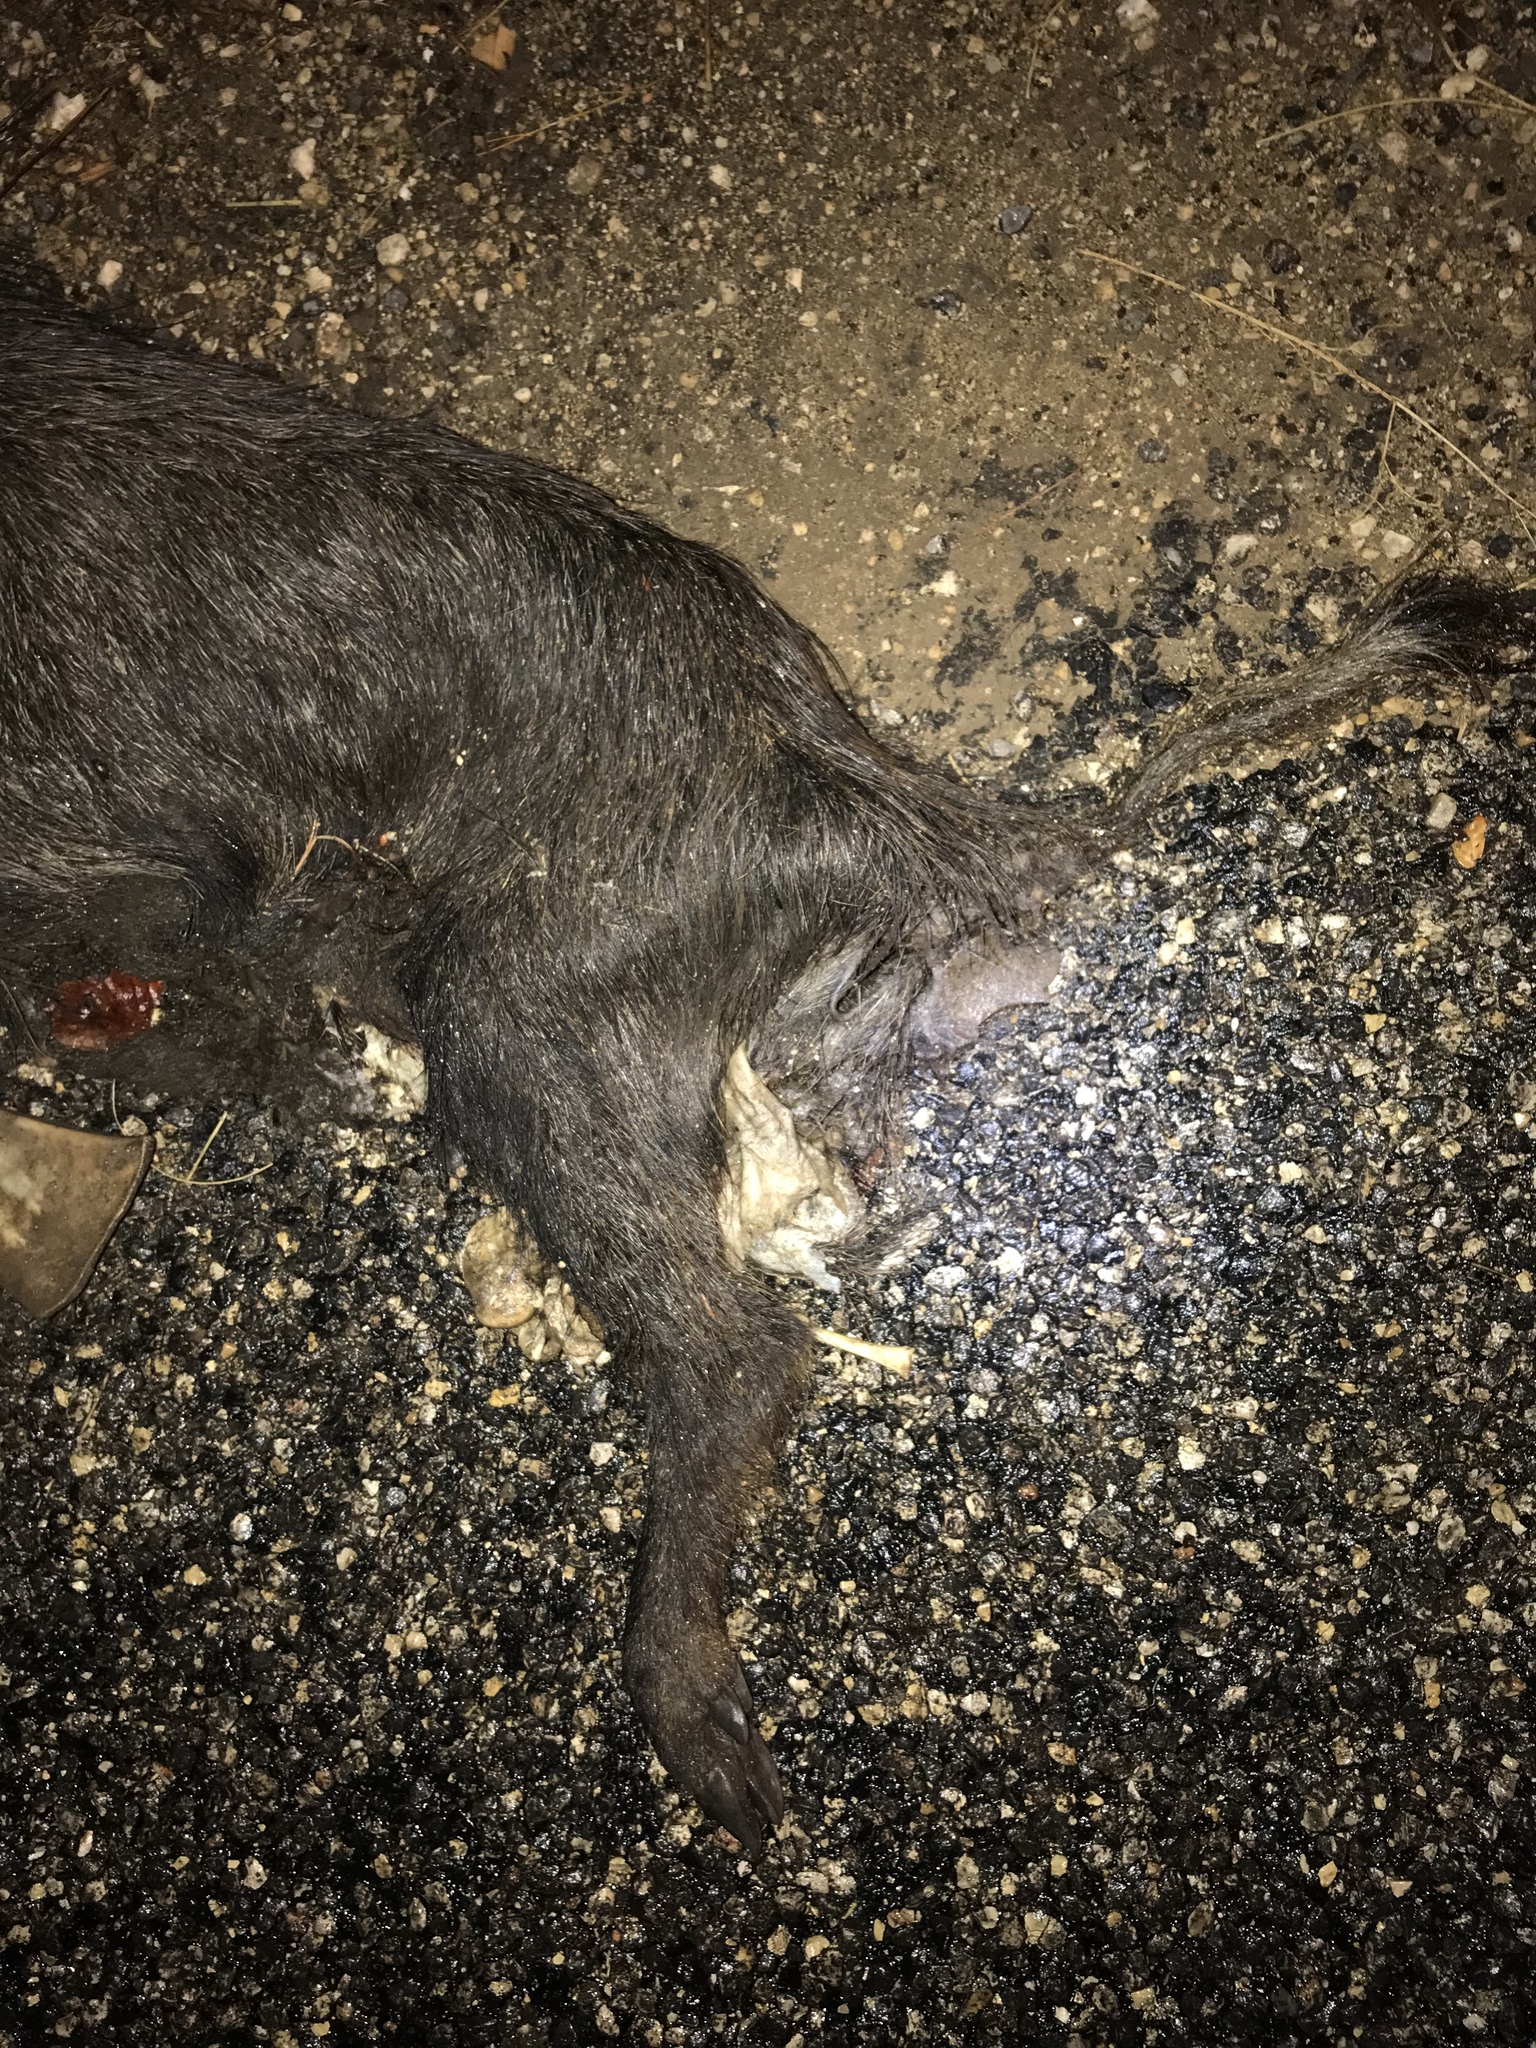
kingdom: Animalia
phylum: Chordata
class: Mammalia
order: Artiodactyla
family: Suidae
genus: Sus
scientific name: Sus scrofa
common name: Wild boar
